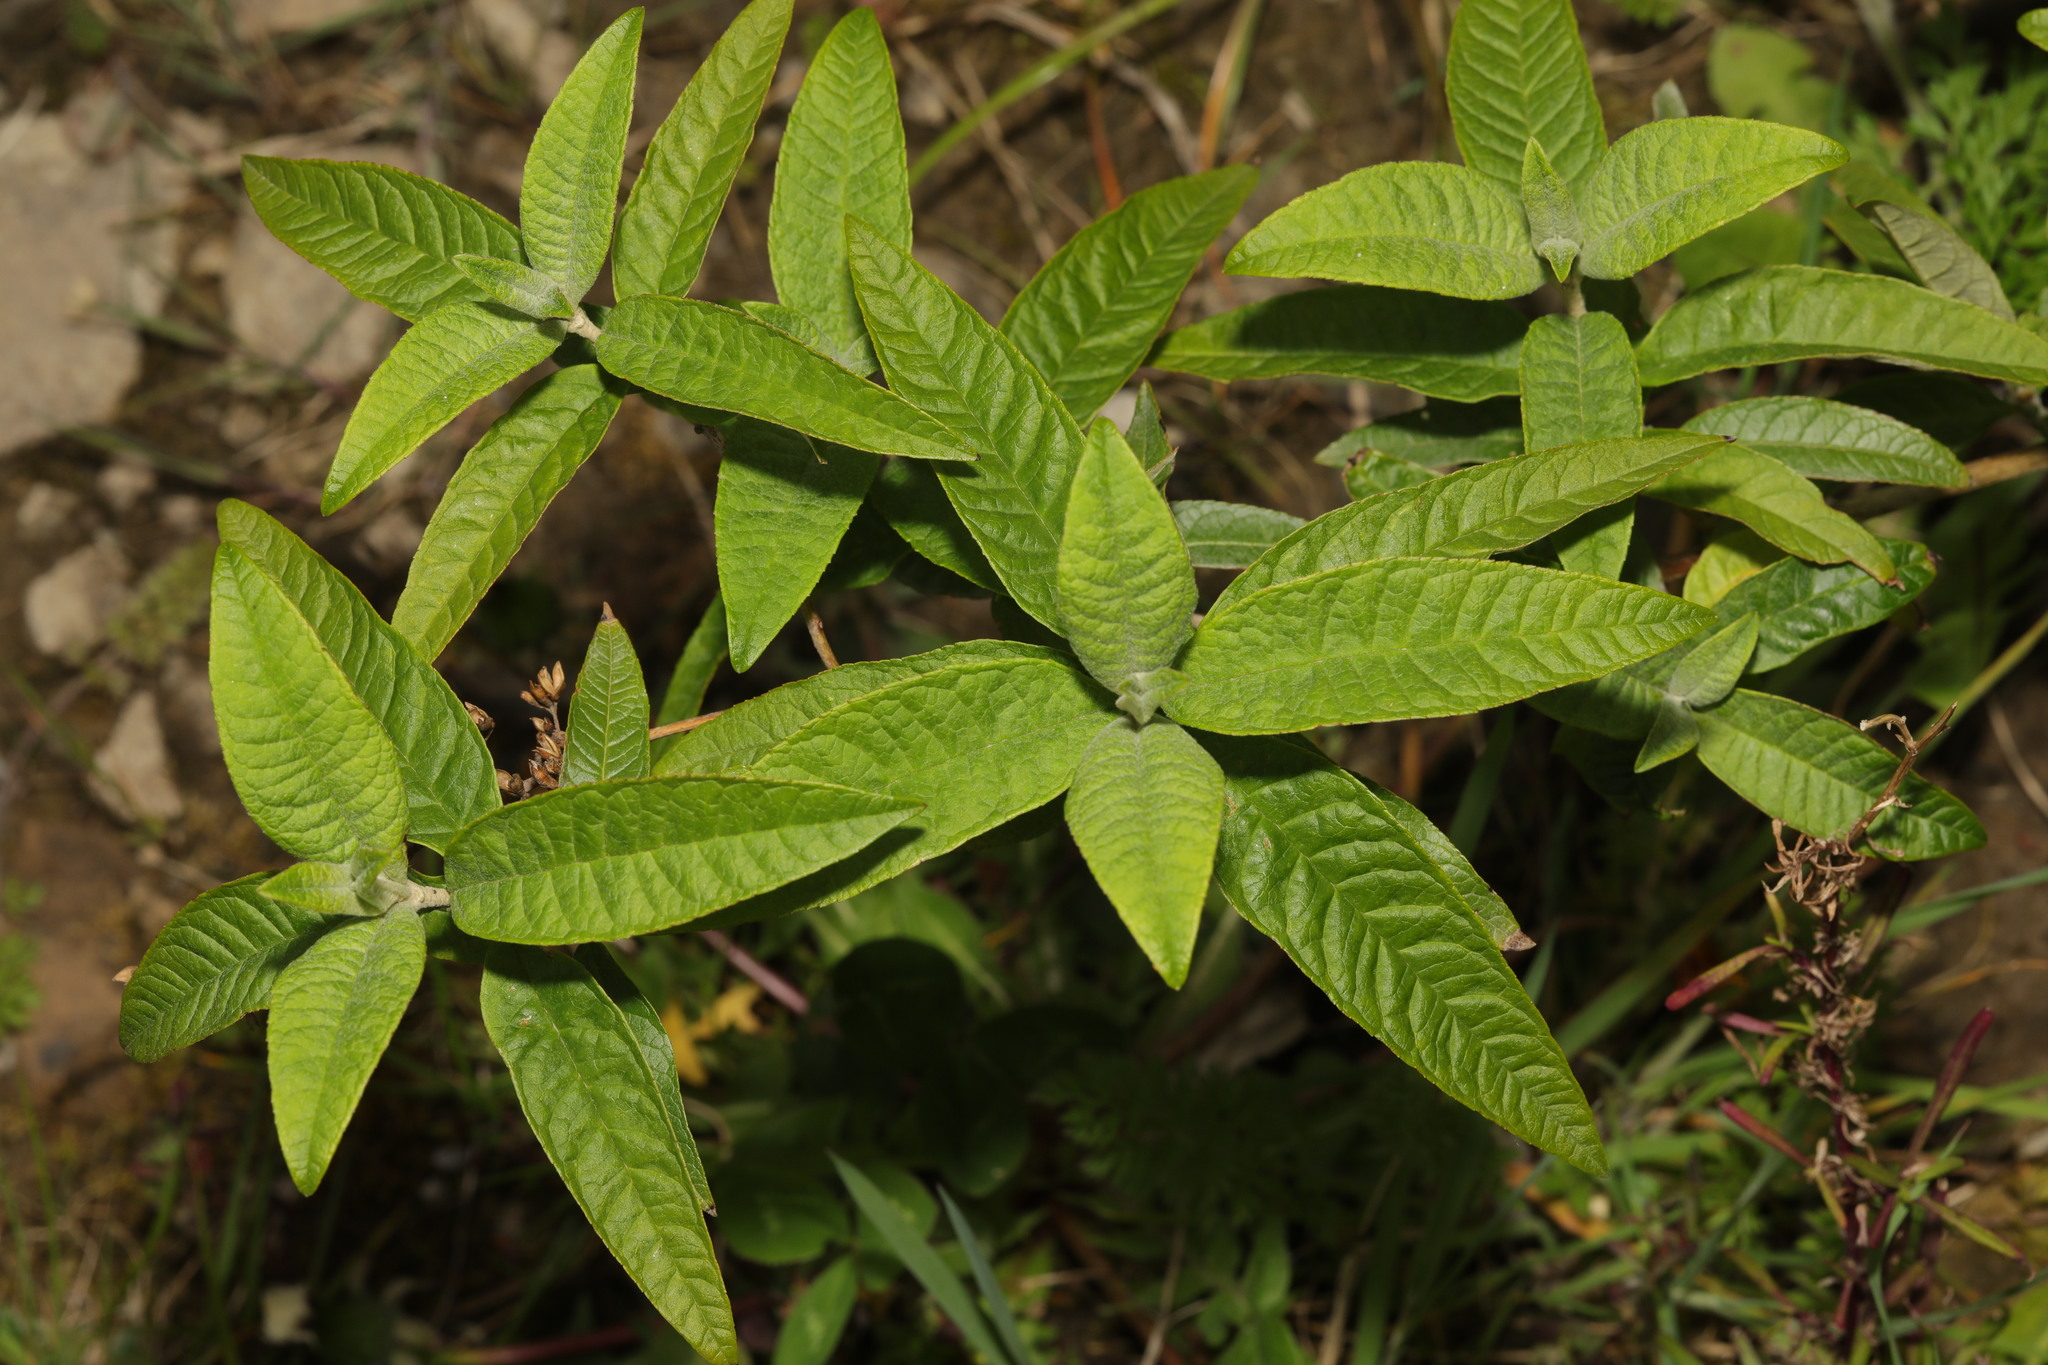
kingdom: Plantae
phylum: Tracheophyta
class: Magnoliopsida
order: Lamiales
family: Scrophulariaceae
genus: Buddleja
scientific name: Buddleja davidii
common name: Butterfly-bush
